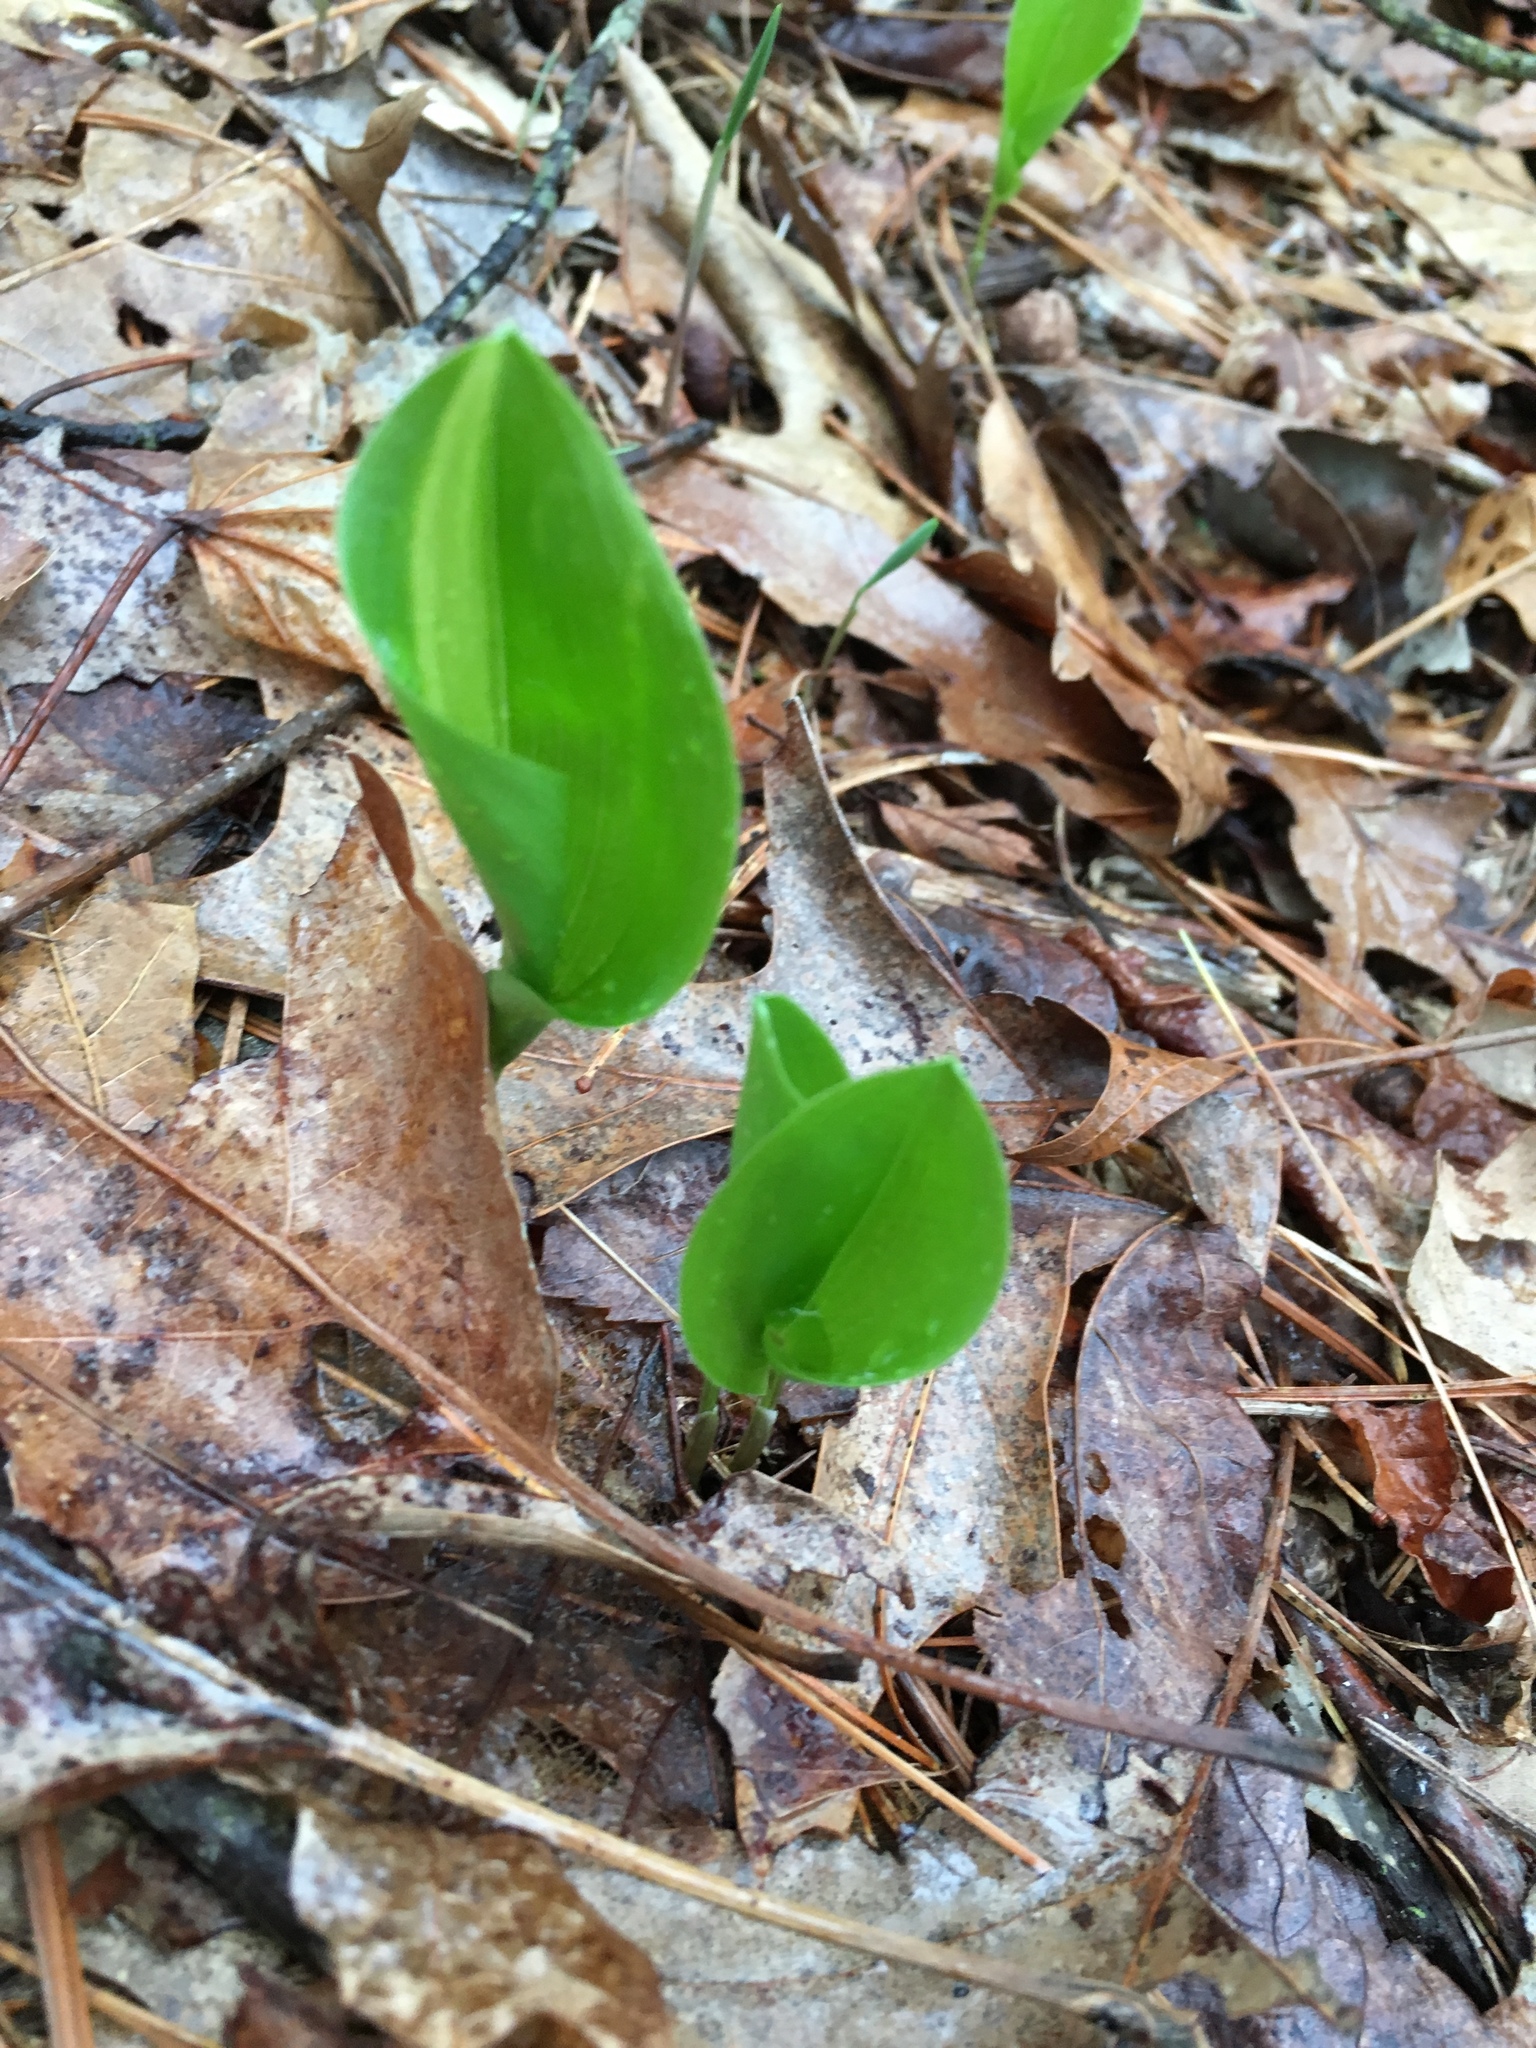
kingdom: Plantae
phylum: Tracheophyta
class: Liliopsida
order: Asparagales
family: Asparagaceae
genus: Maianthemum
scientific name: Maianthemum canadense
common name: False lily-of-the-valley
